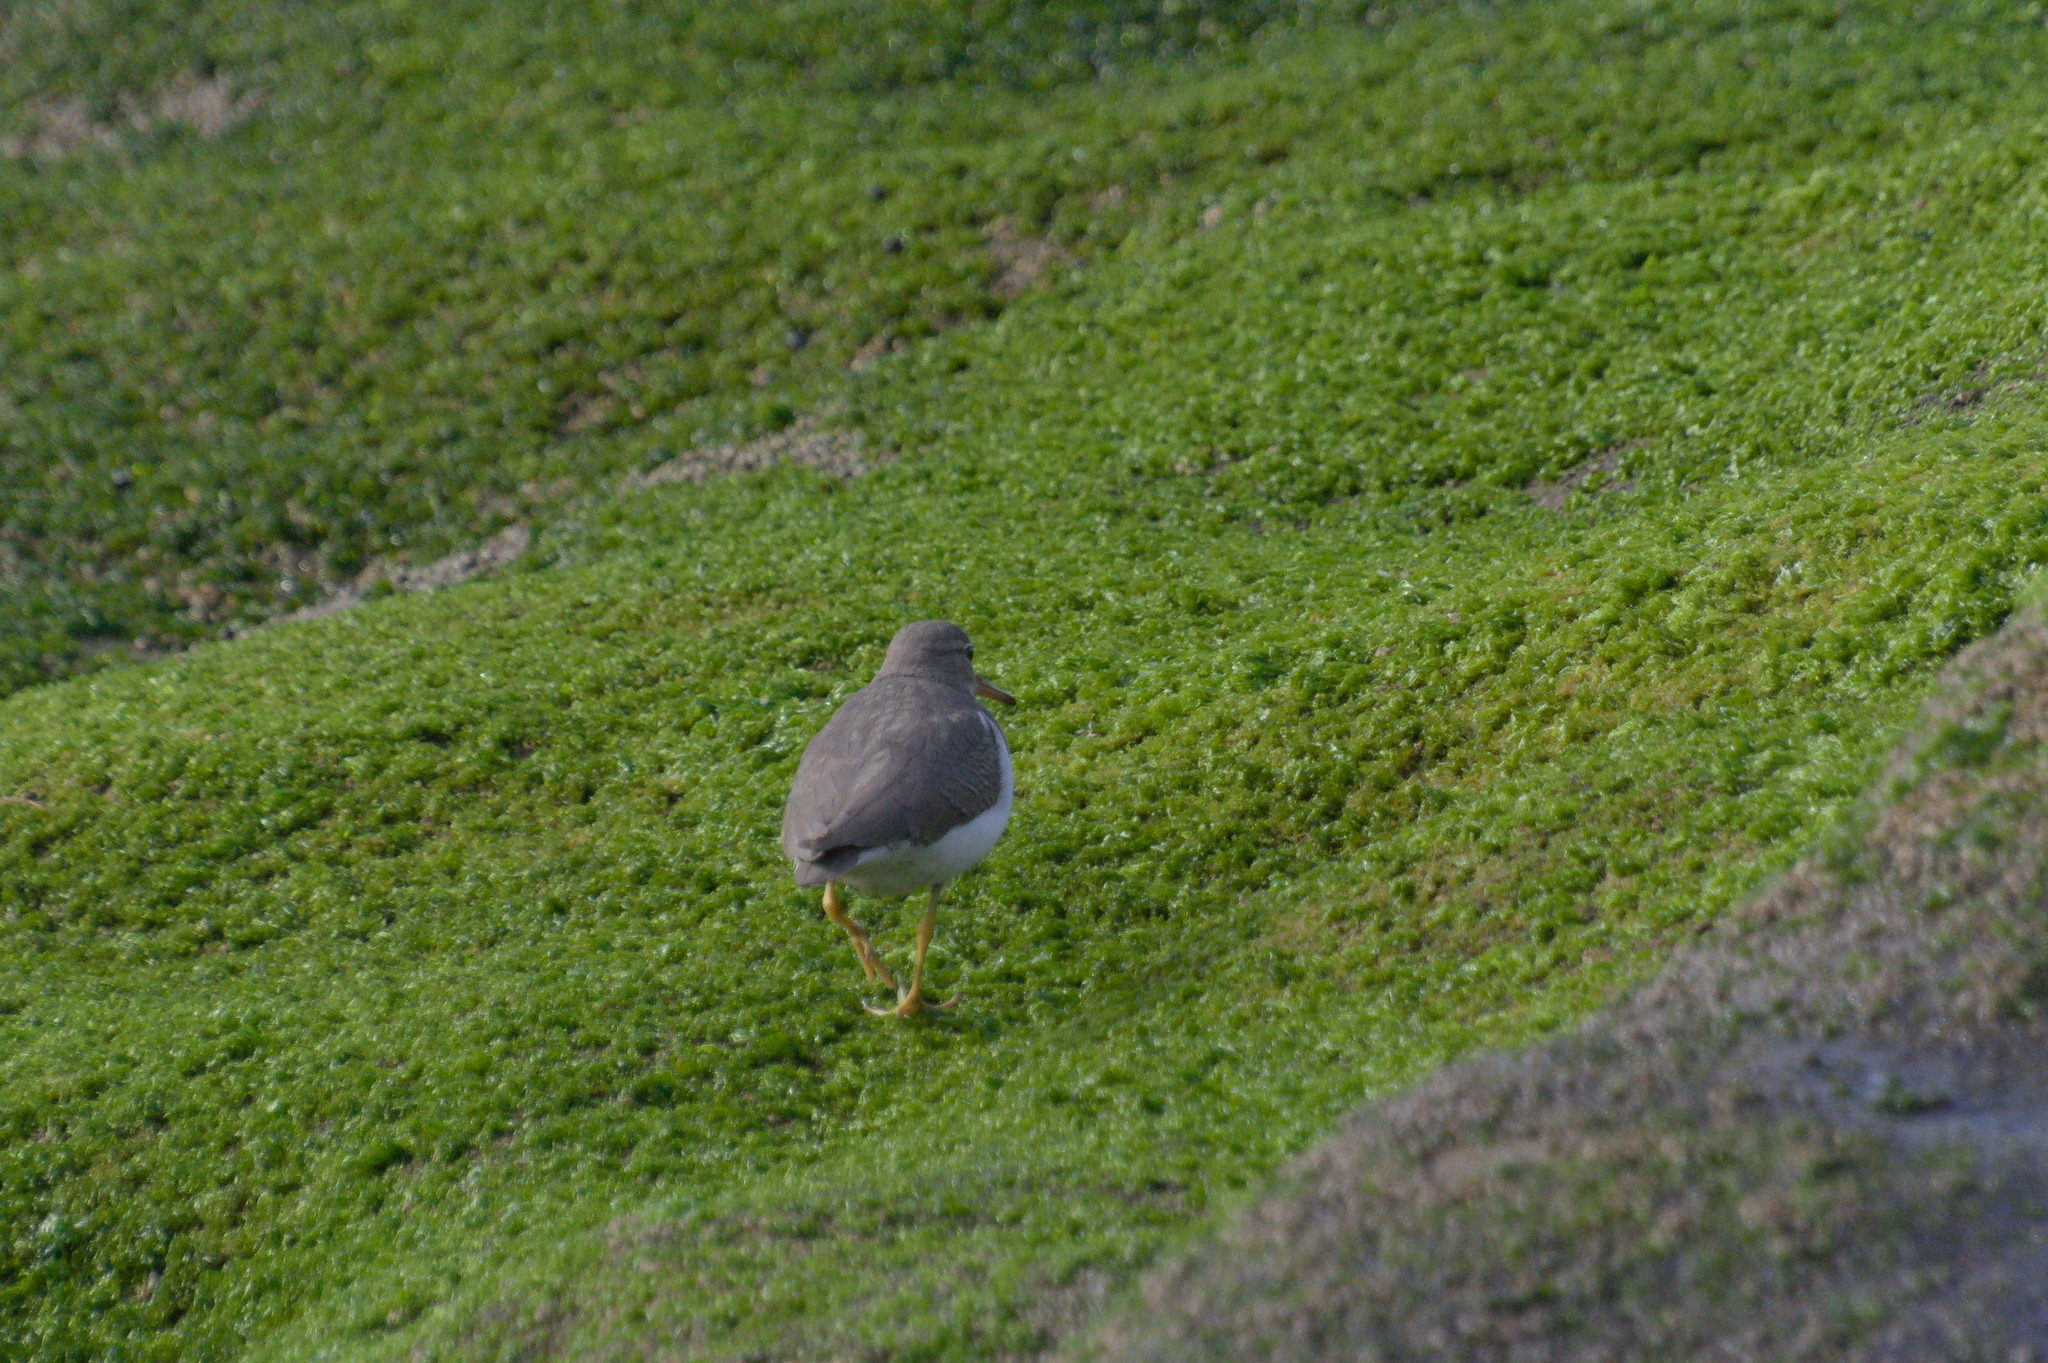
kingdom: Animalia
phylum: Chordata
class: Aves
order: Charadriiformes
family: Scolopacidae
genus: Actitis
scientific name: Actitis macularius
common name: Spotted sandpiper
